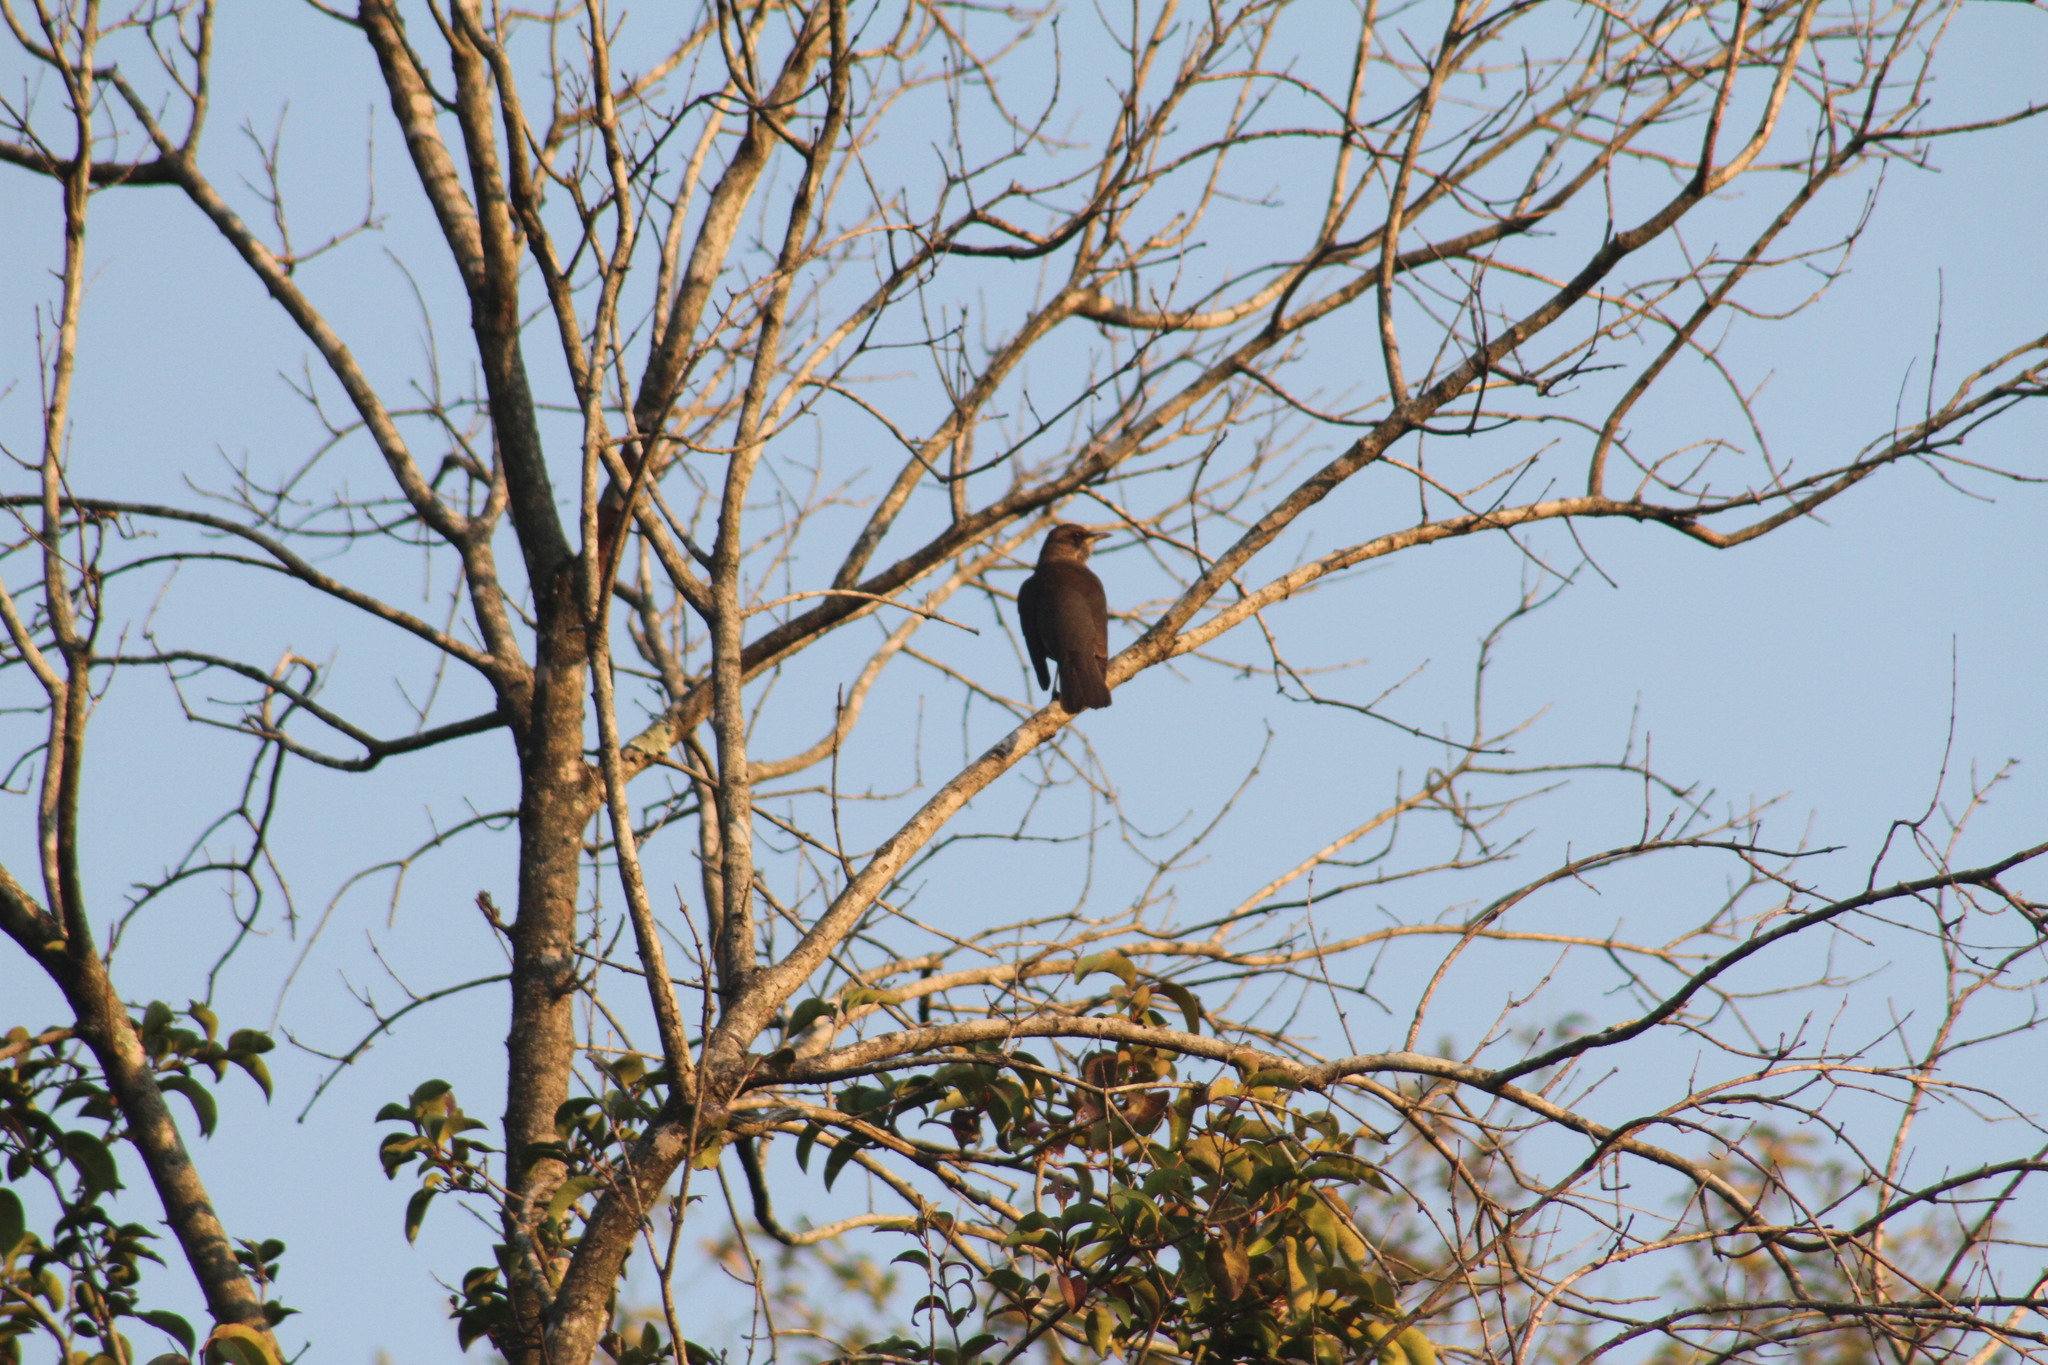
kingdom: Animalia
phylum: Chordata
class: Aves
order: Passeriformes
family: Turdidae
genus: Turdus
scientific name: Turdus amaurochalinus
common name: Creamy-bellied thrush
